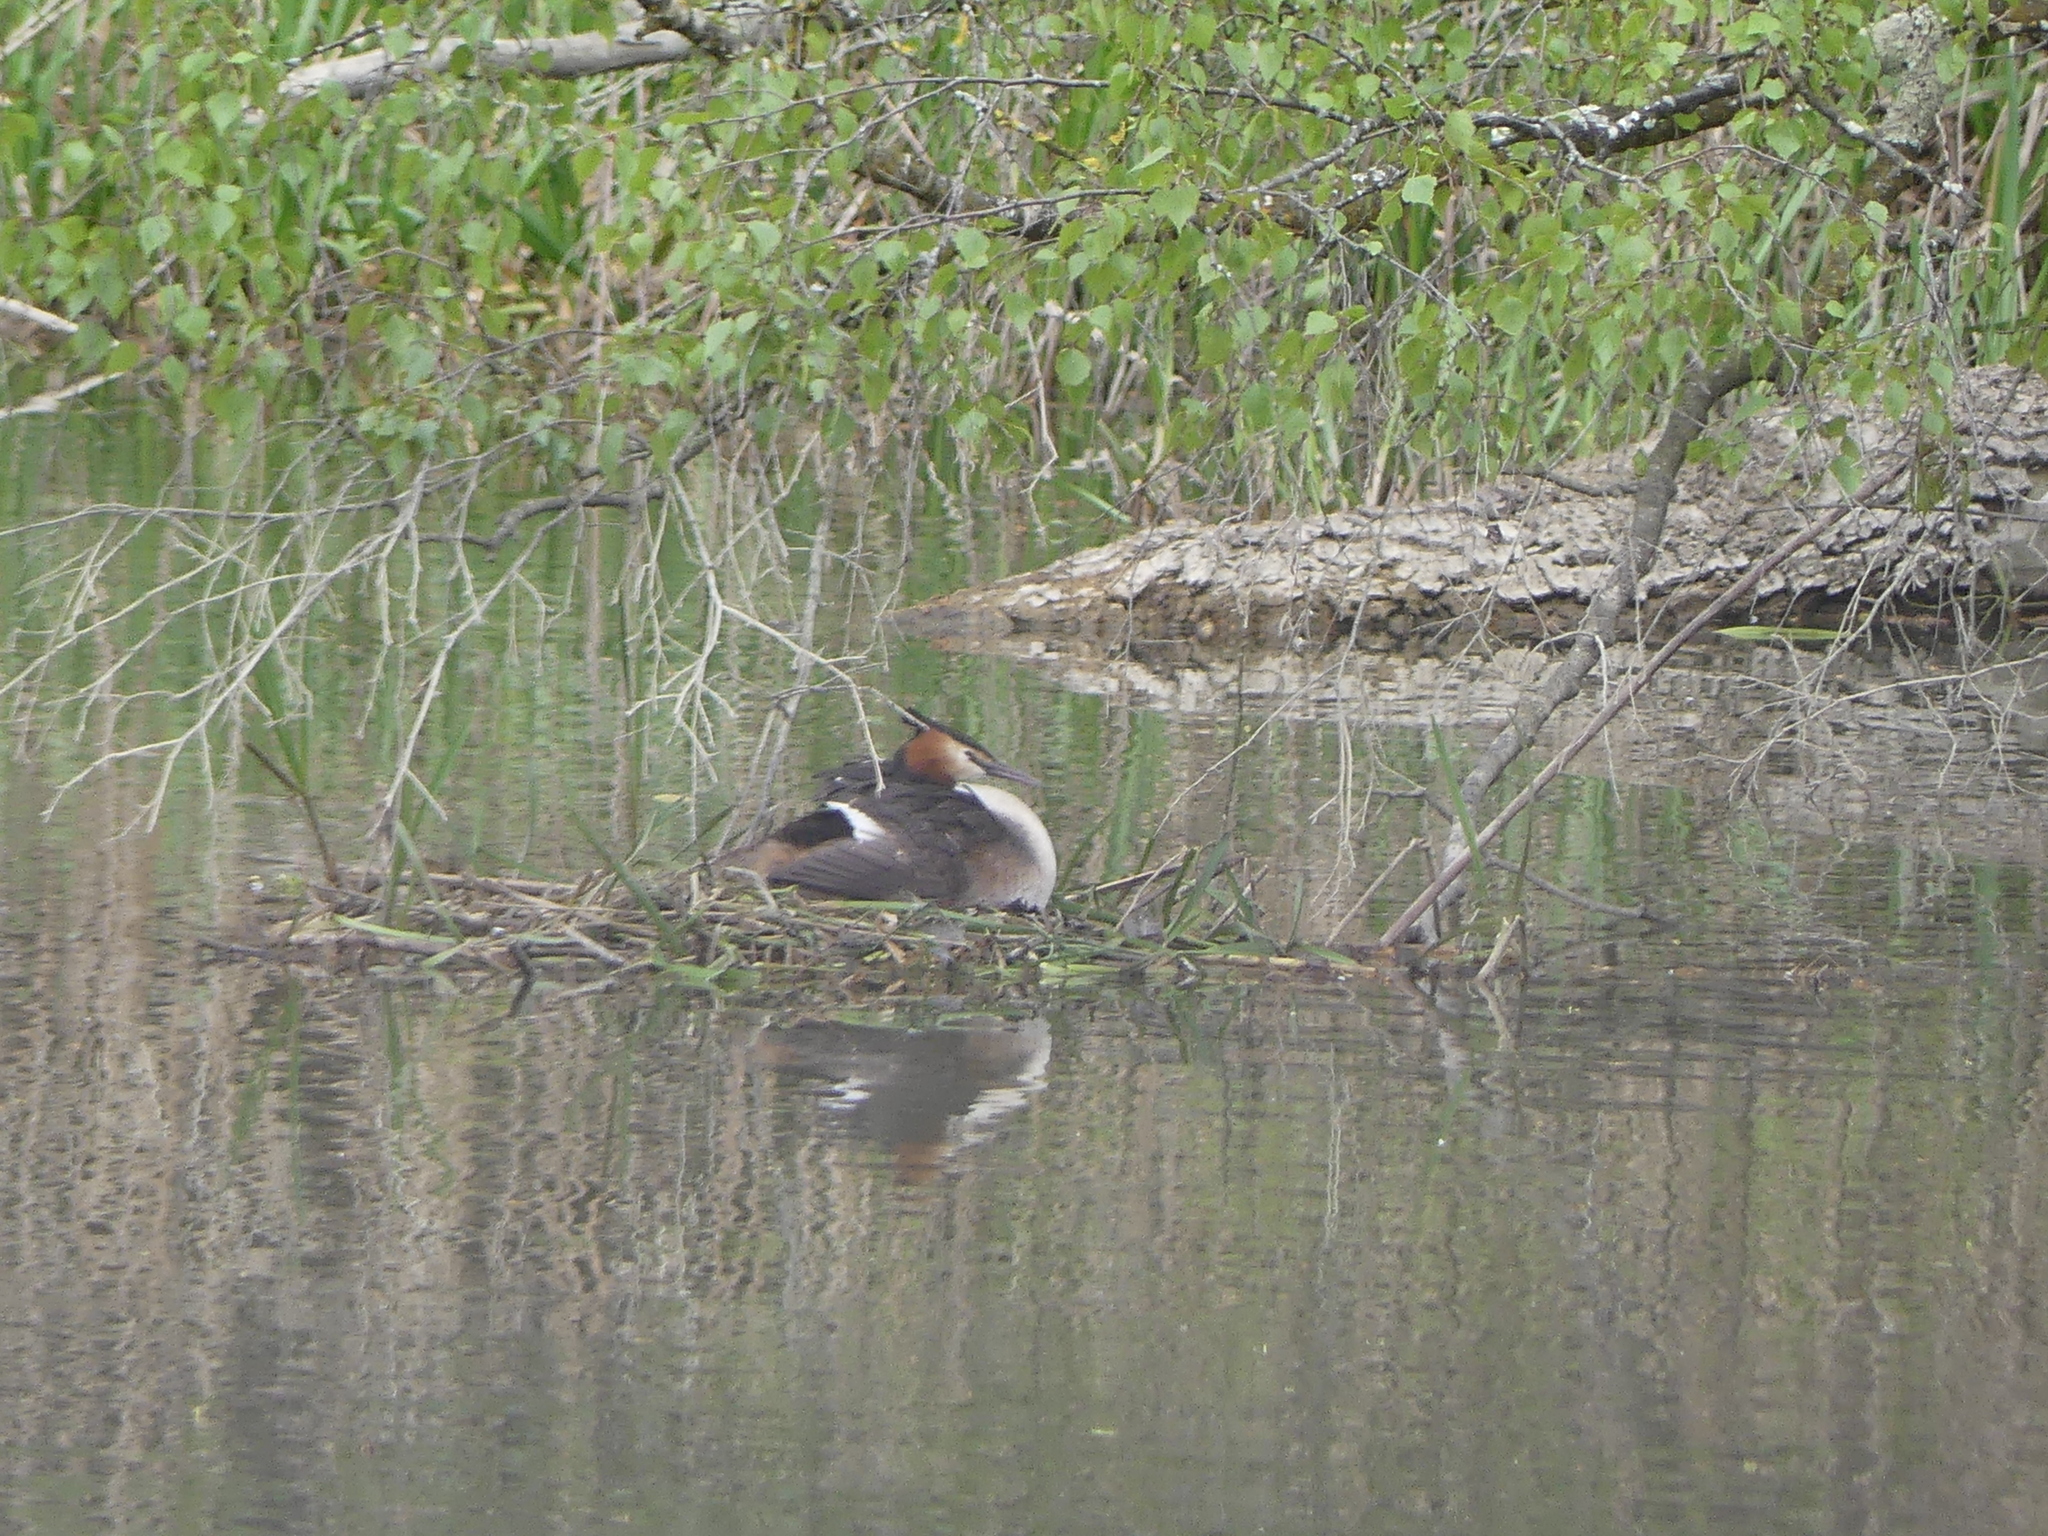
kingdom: Animalia
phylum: Chordata
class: Aves
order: Podicipediformes
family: Podicipedidae
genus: Podiceps
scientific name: Podiceps cristatus
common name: Great crested grebe
